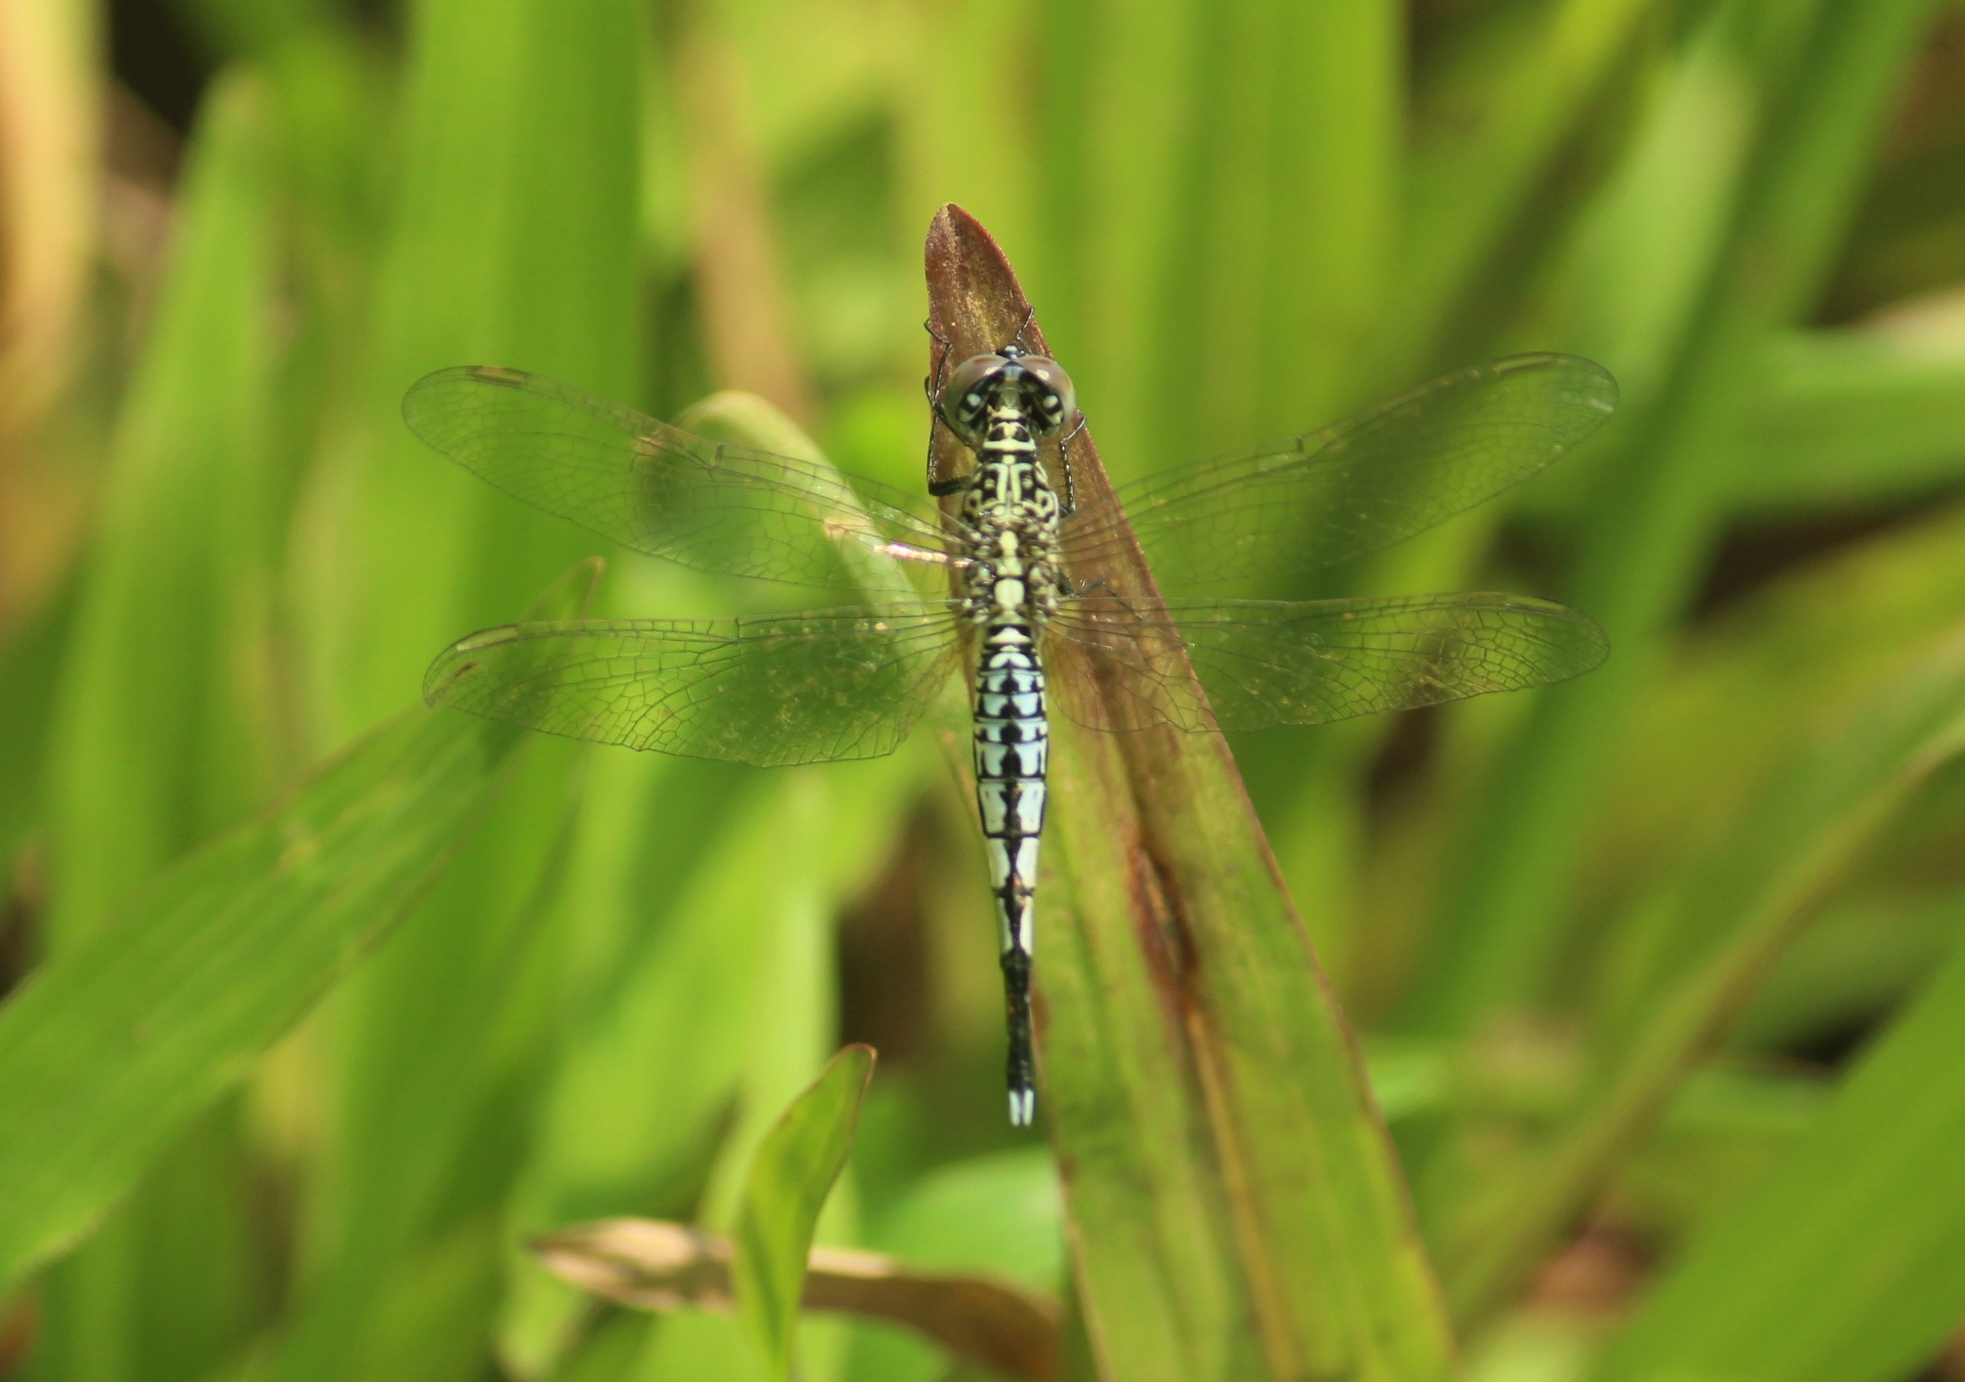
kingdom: Animalia
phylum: Arthropoda
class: Insecta
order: Odonata
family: Libellulidae
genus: Acisoma
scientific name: Acisoma panorpoides
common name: Asian pintail
